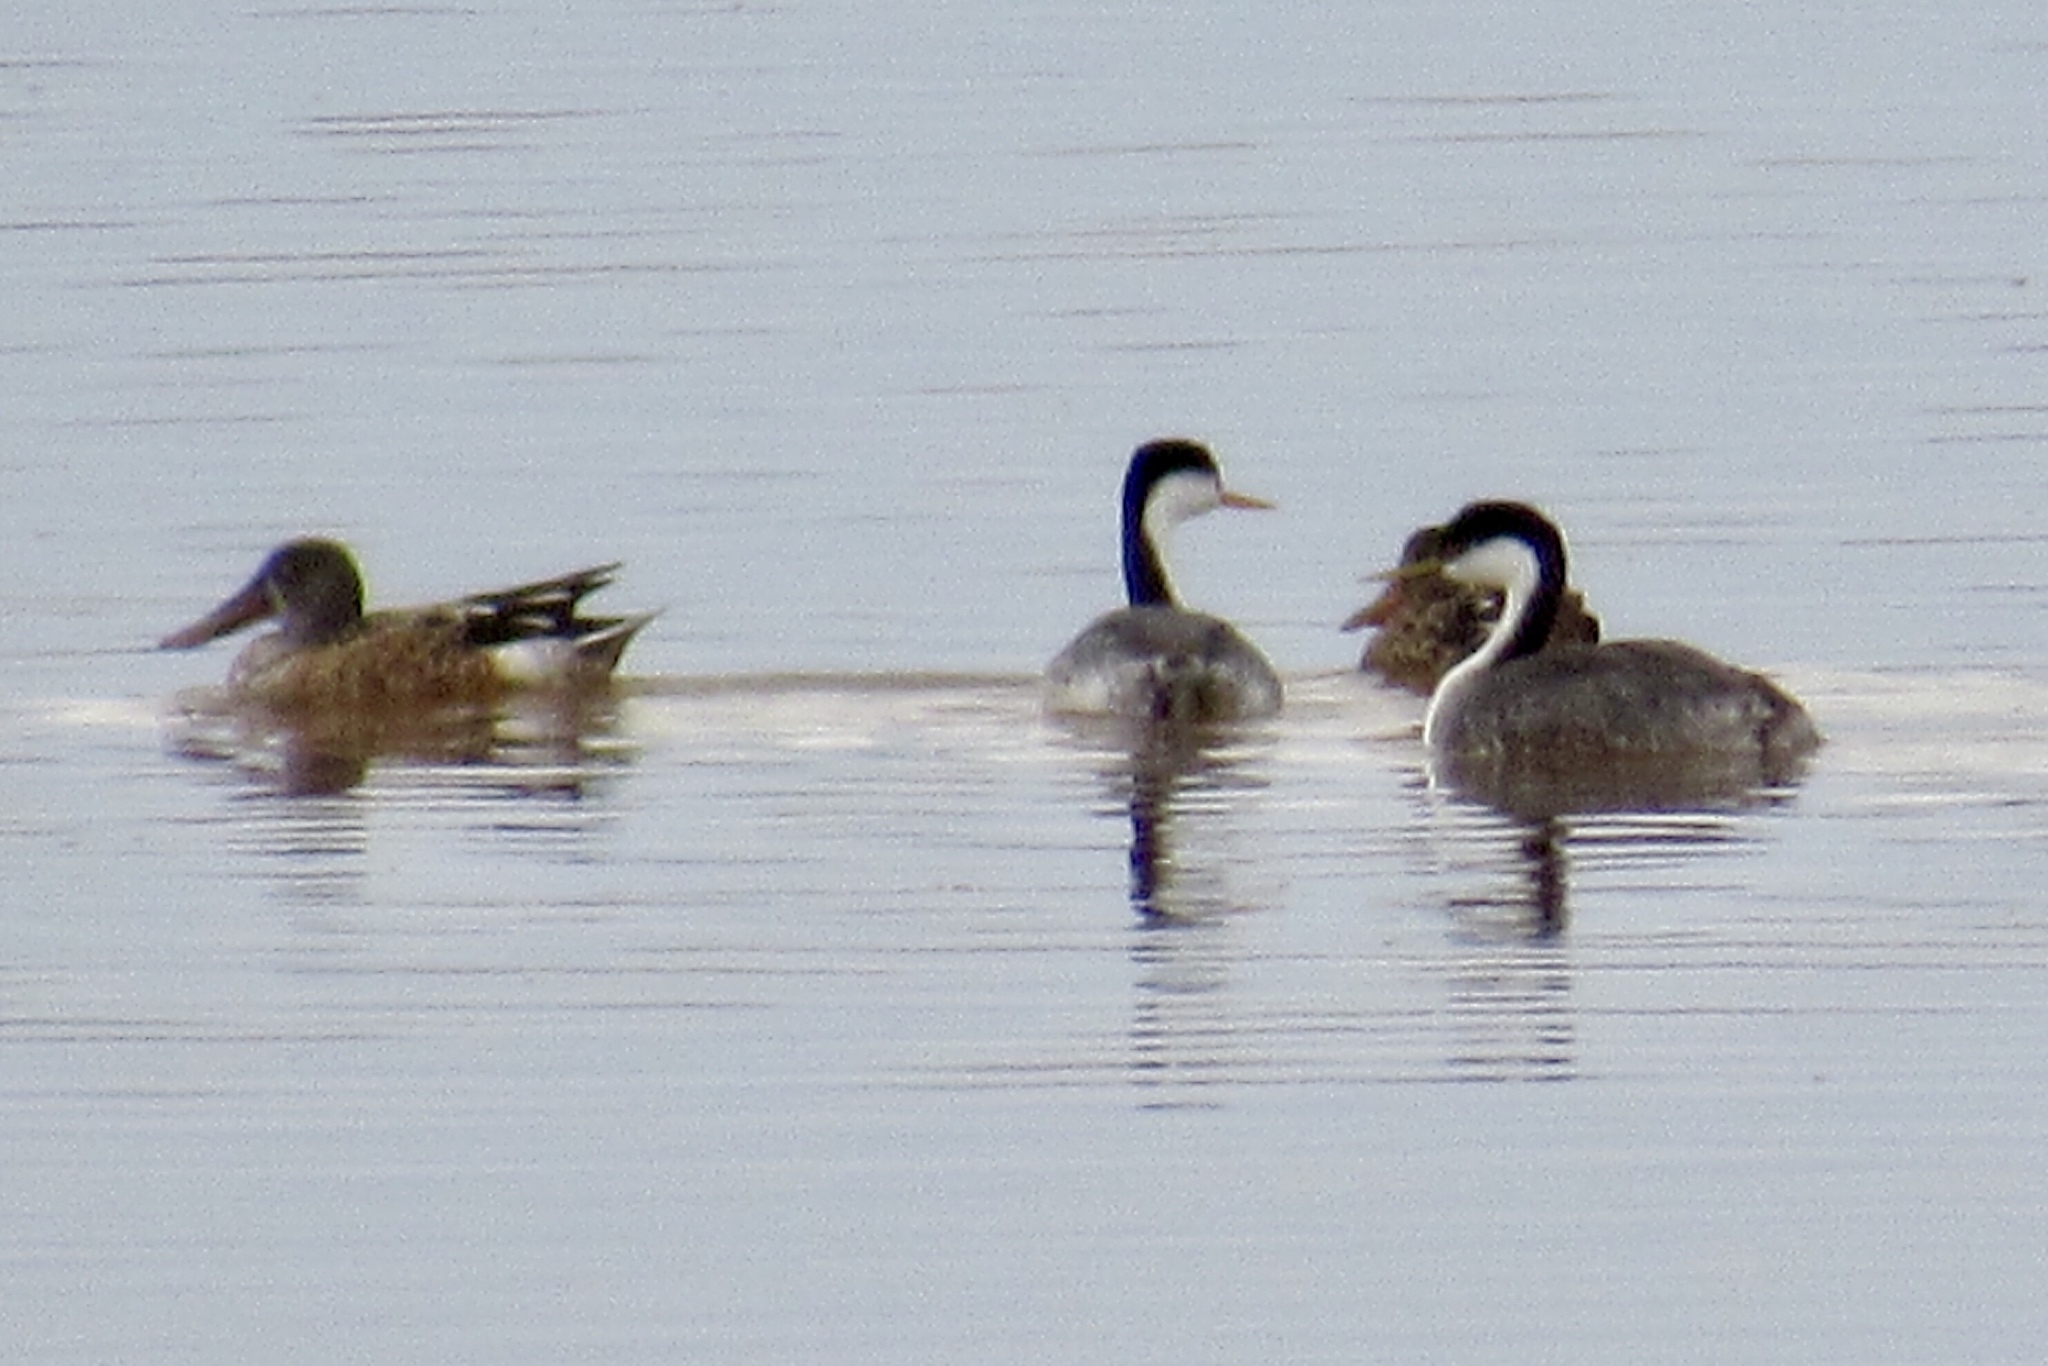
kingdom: Animalia
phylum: Chordata
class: Aves
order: Podicipediformes
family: Podicipedidae
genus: Aechmophorus
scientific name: Aechmophorus occidentalis
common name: Western grebe
